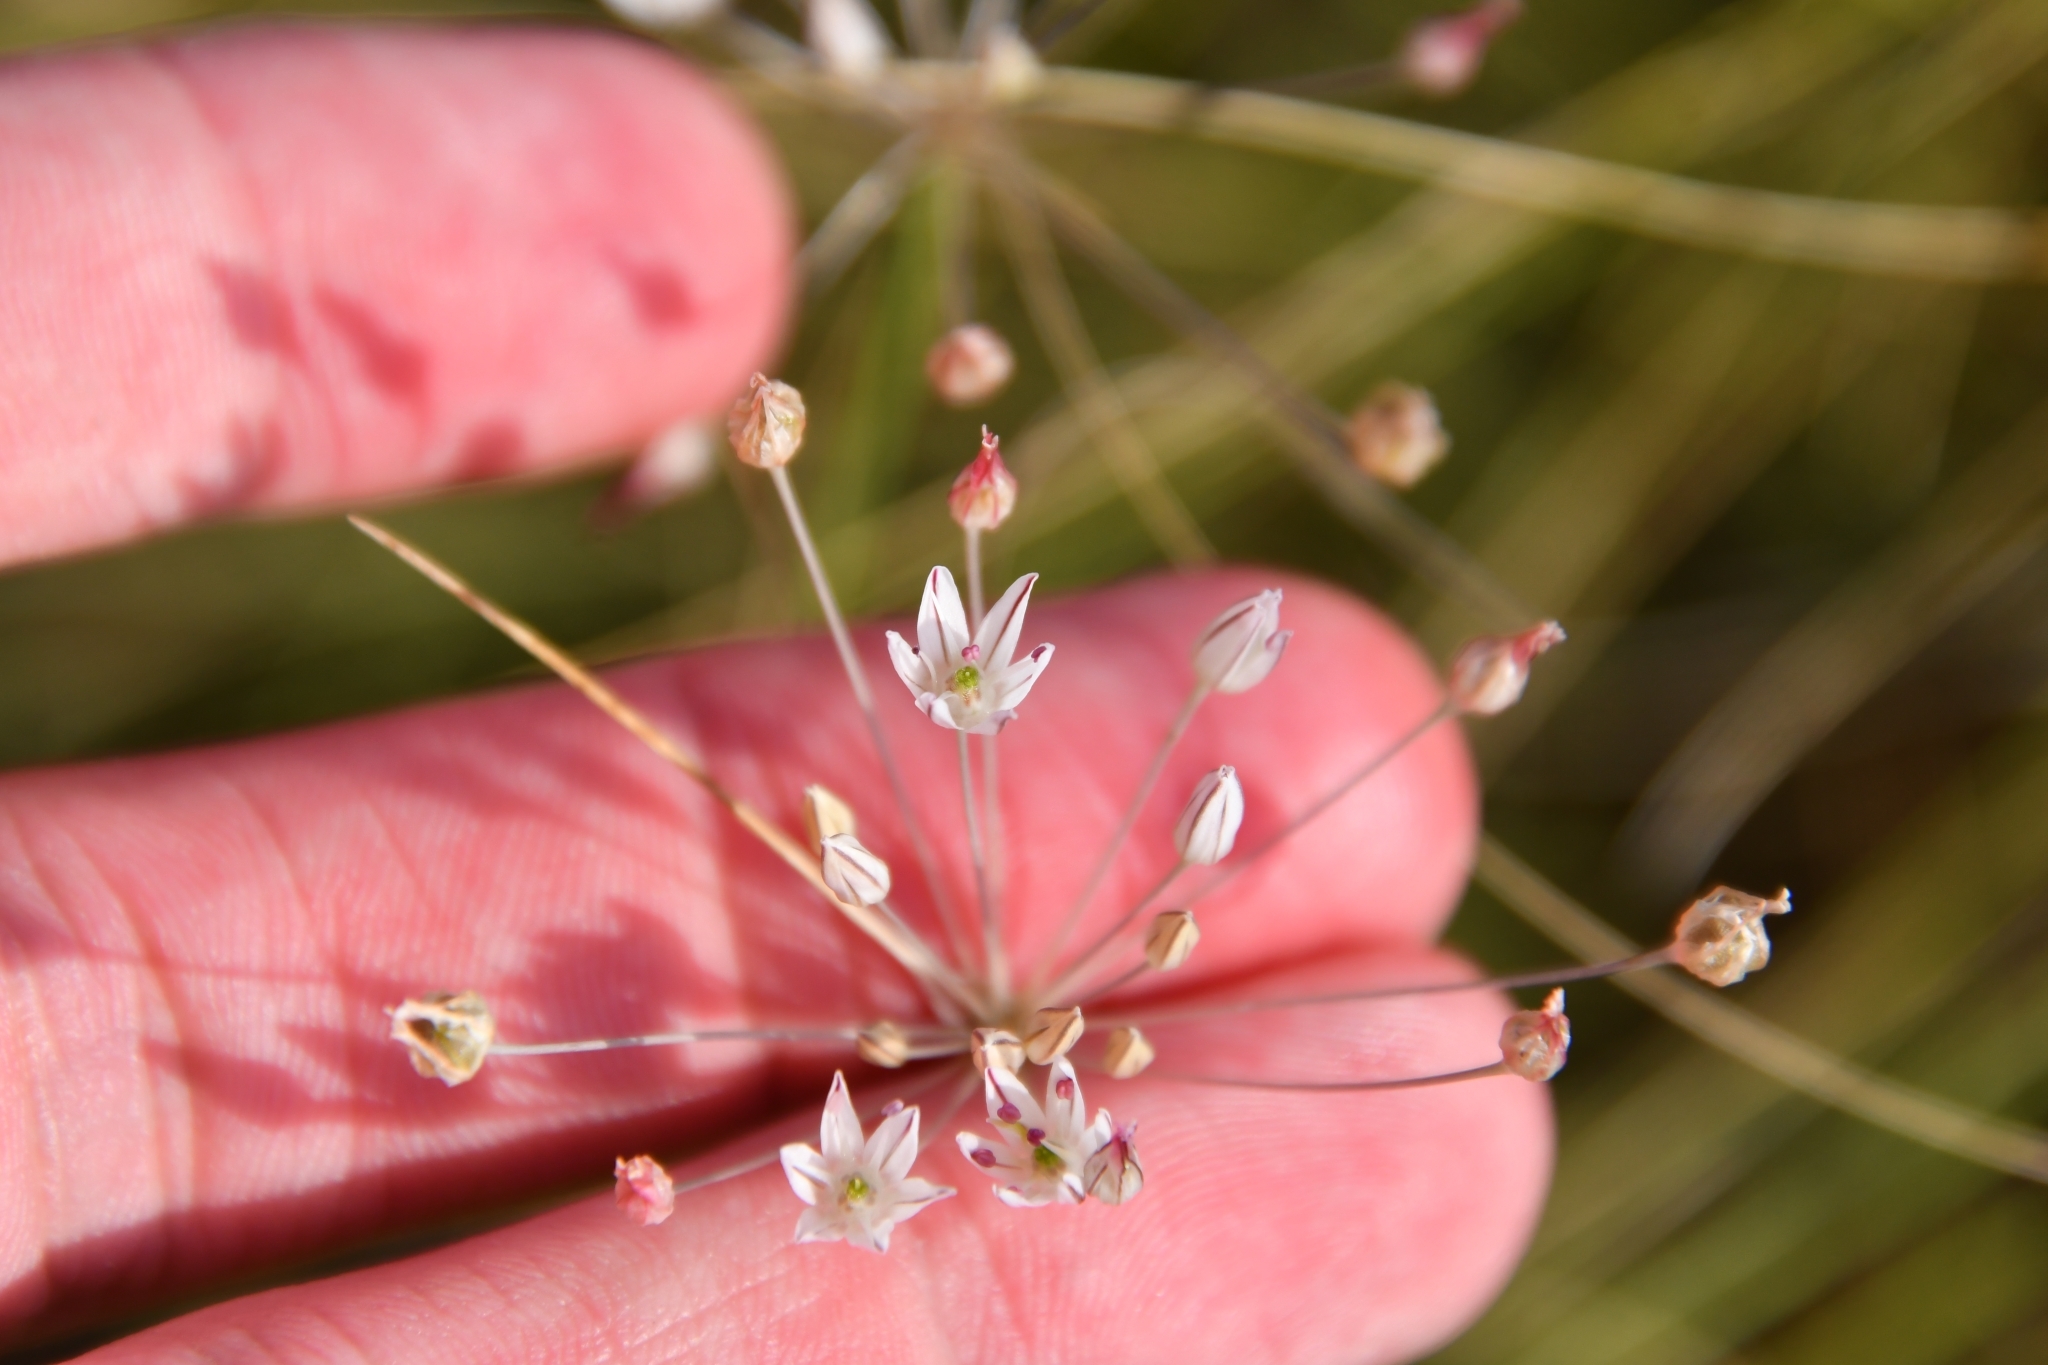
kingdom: Plantae
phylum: Tracheophyta
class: Liliopsida
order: Asparagales
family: Amaryllidaceae
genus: Allium
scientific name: Allium inaequale
